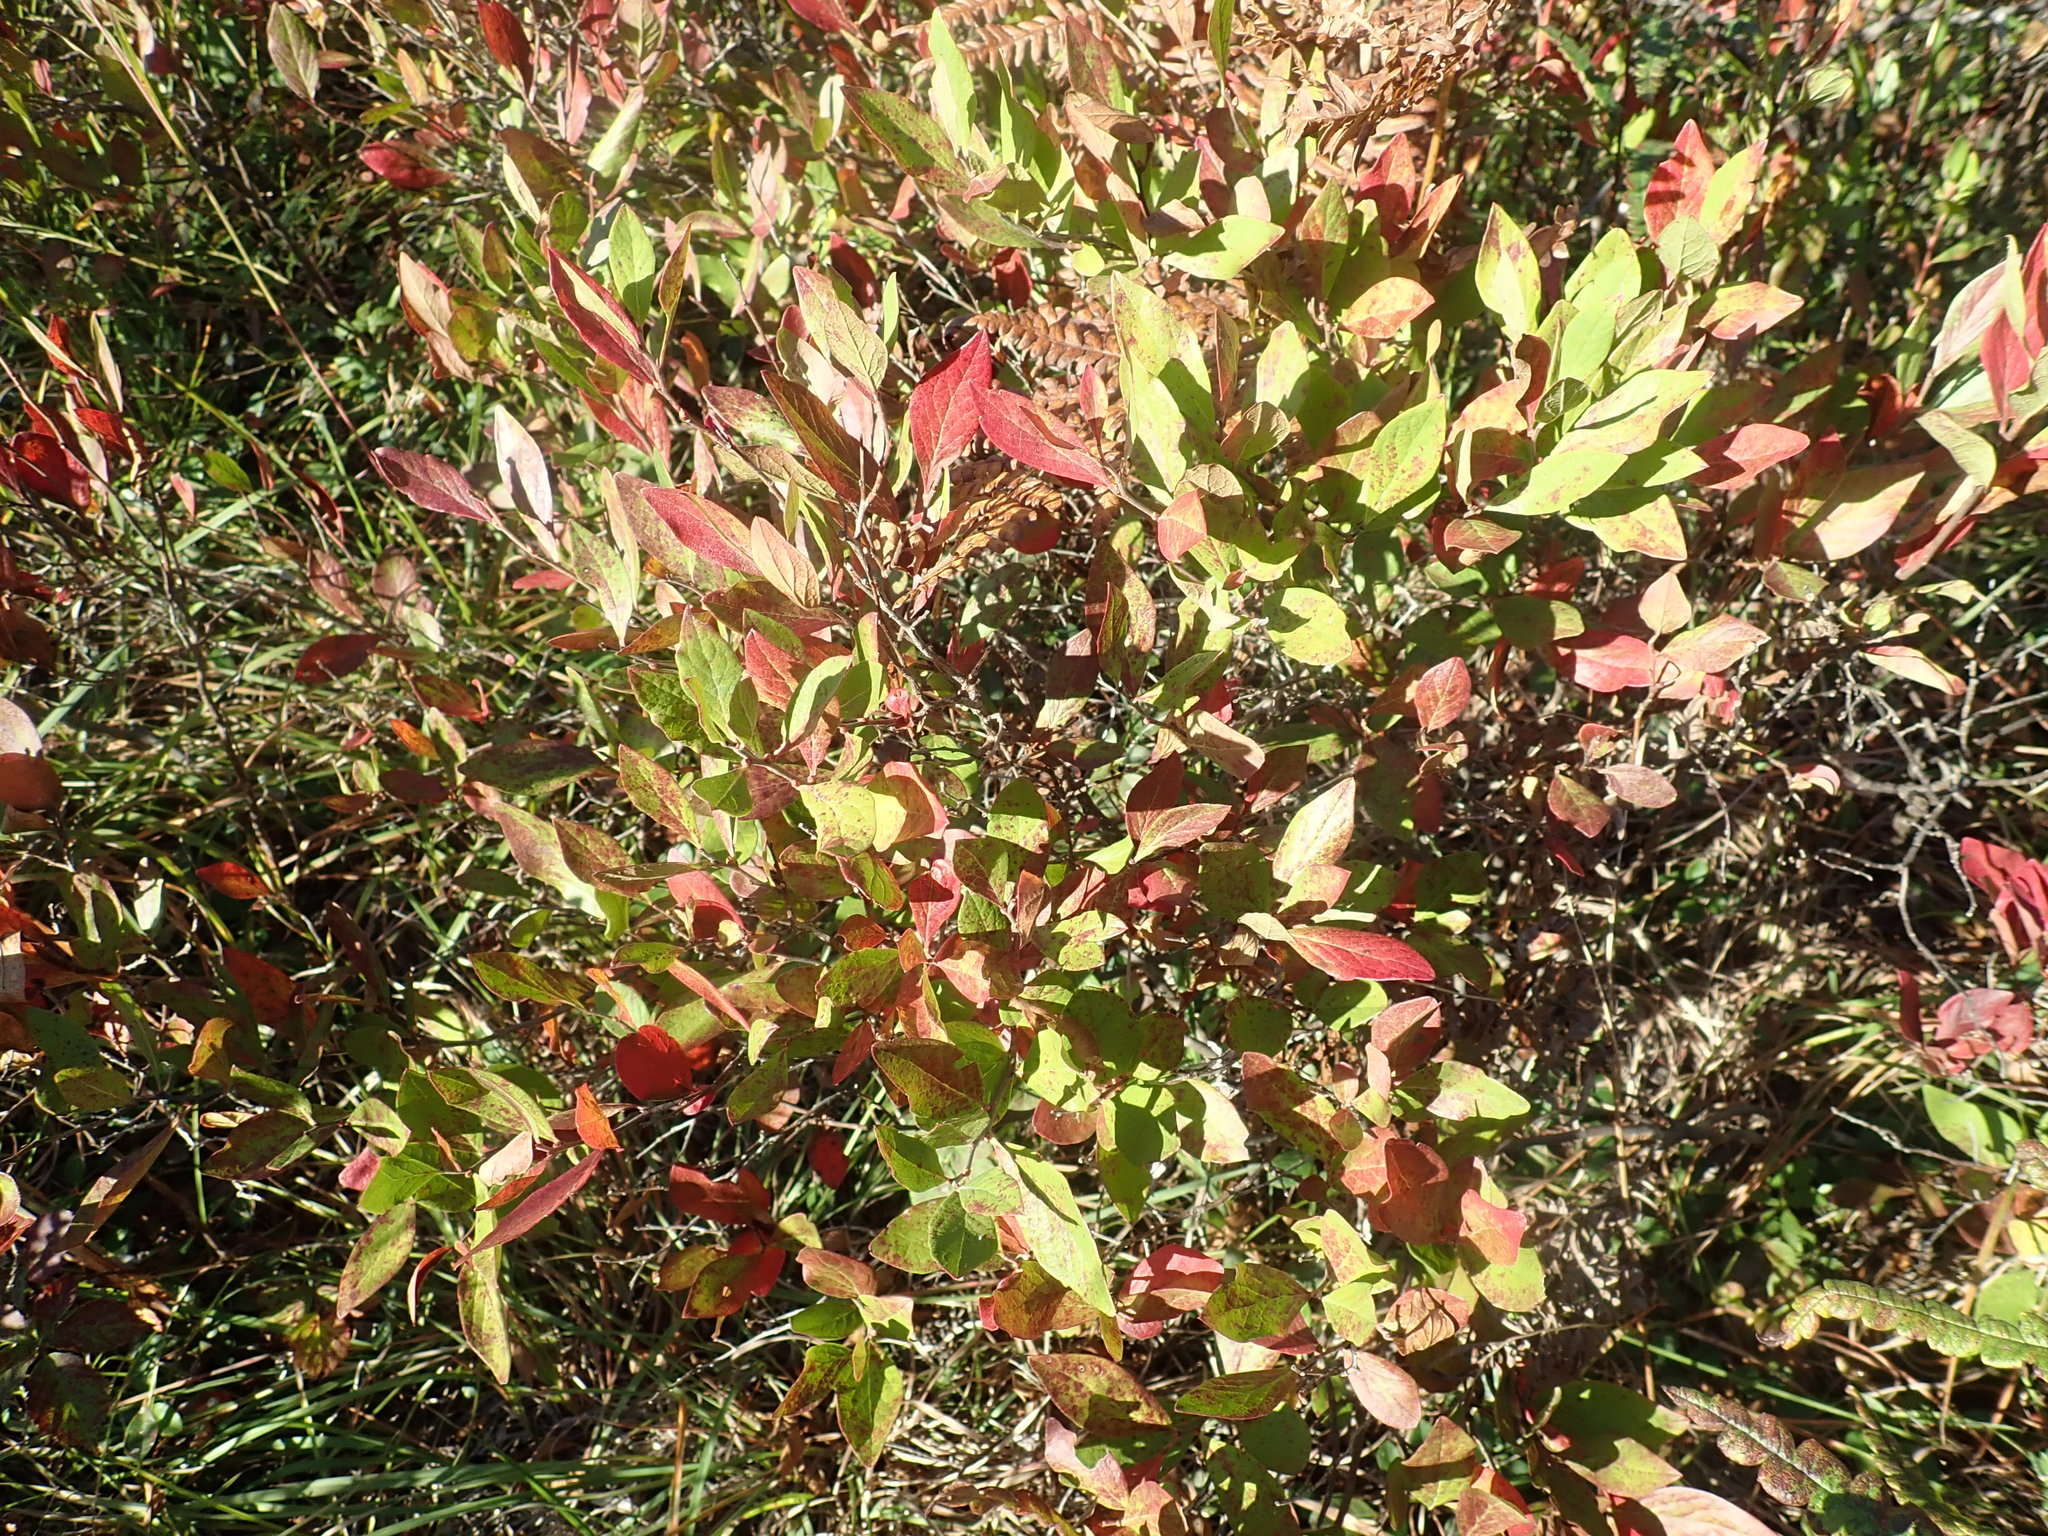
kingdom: Plantae
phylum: Tracheophyta
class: Magnoliopsida
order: Ericales
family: Ericaceae
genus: Gaylussacia
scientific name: Gaylussacia baccata
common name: Black huckleberry
